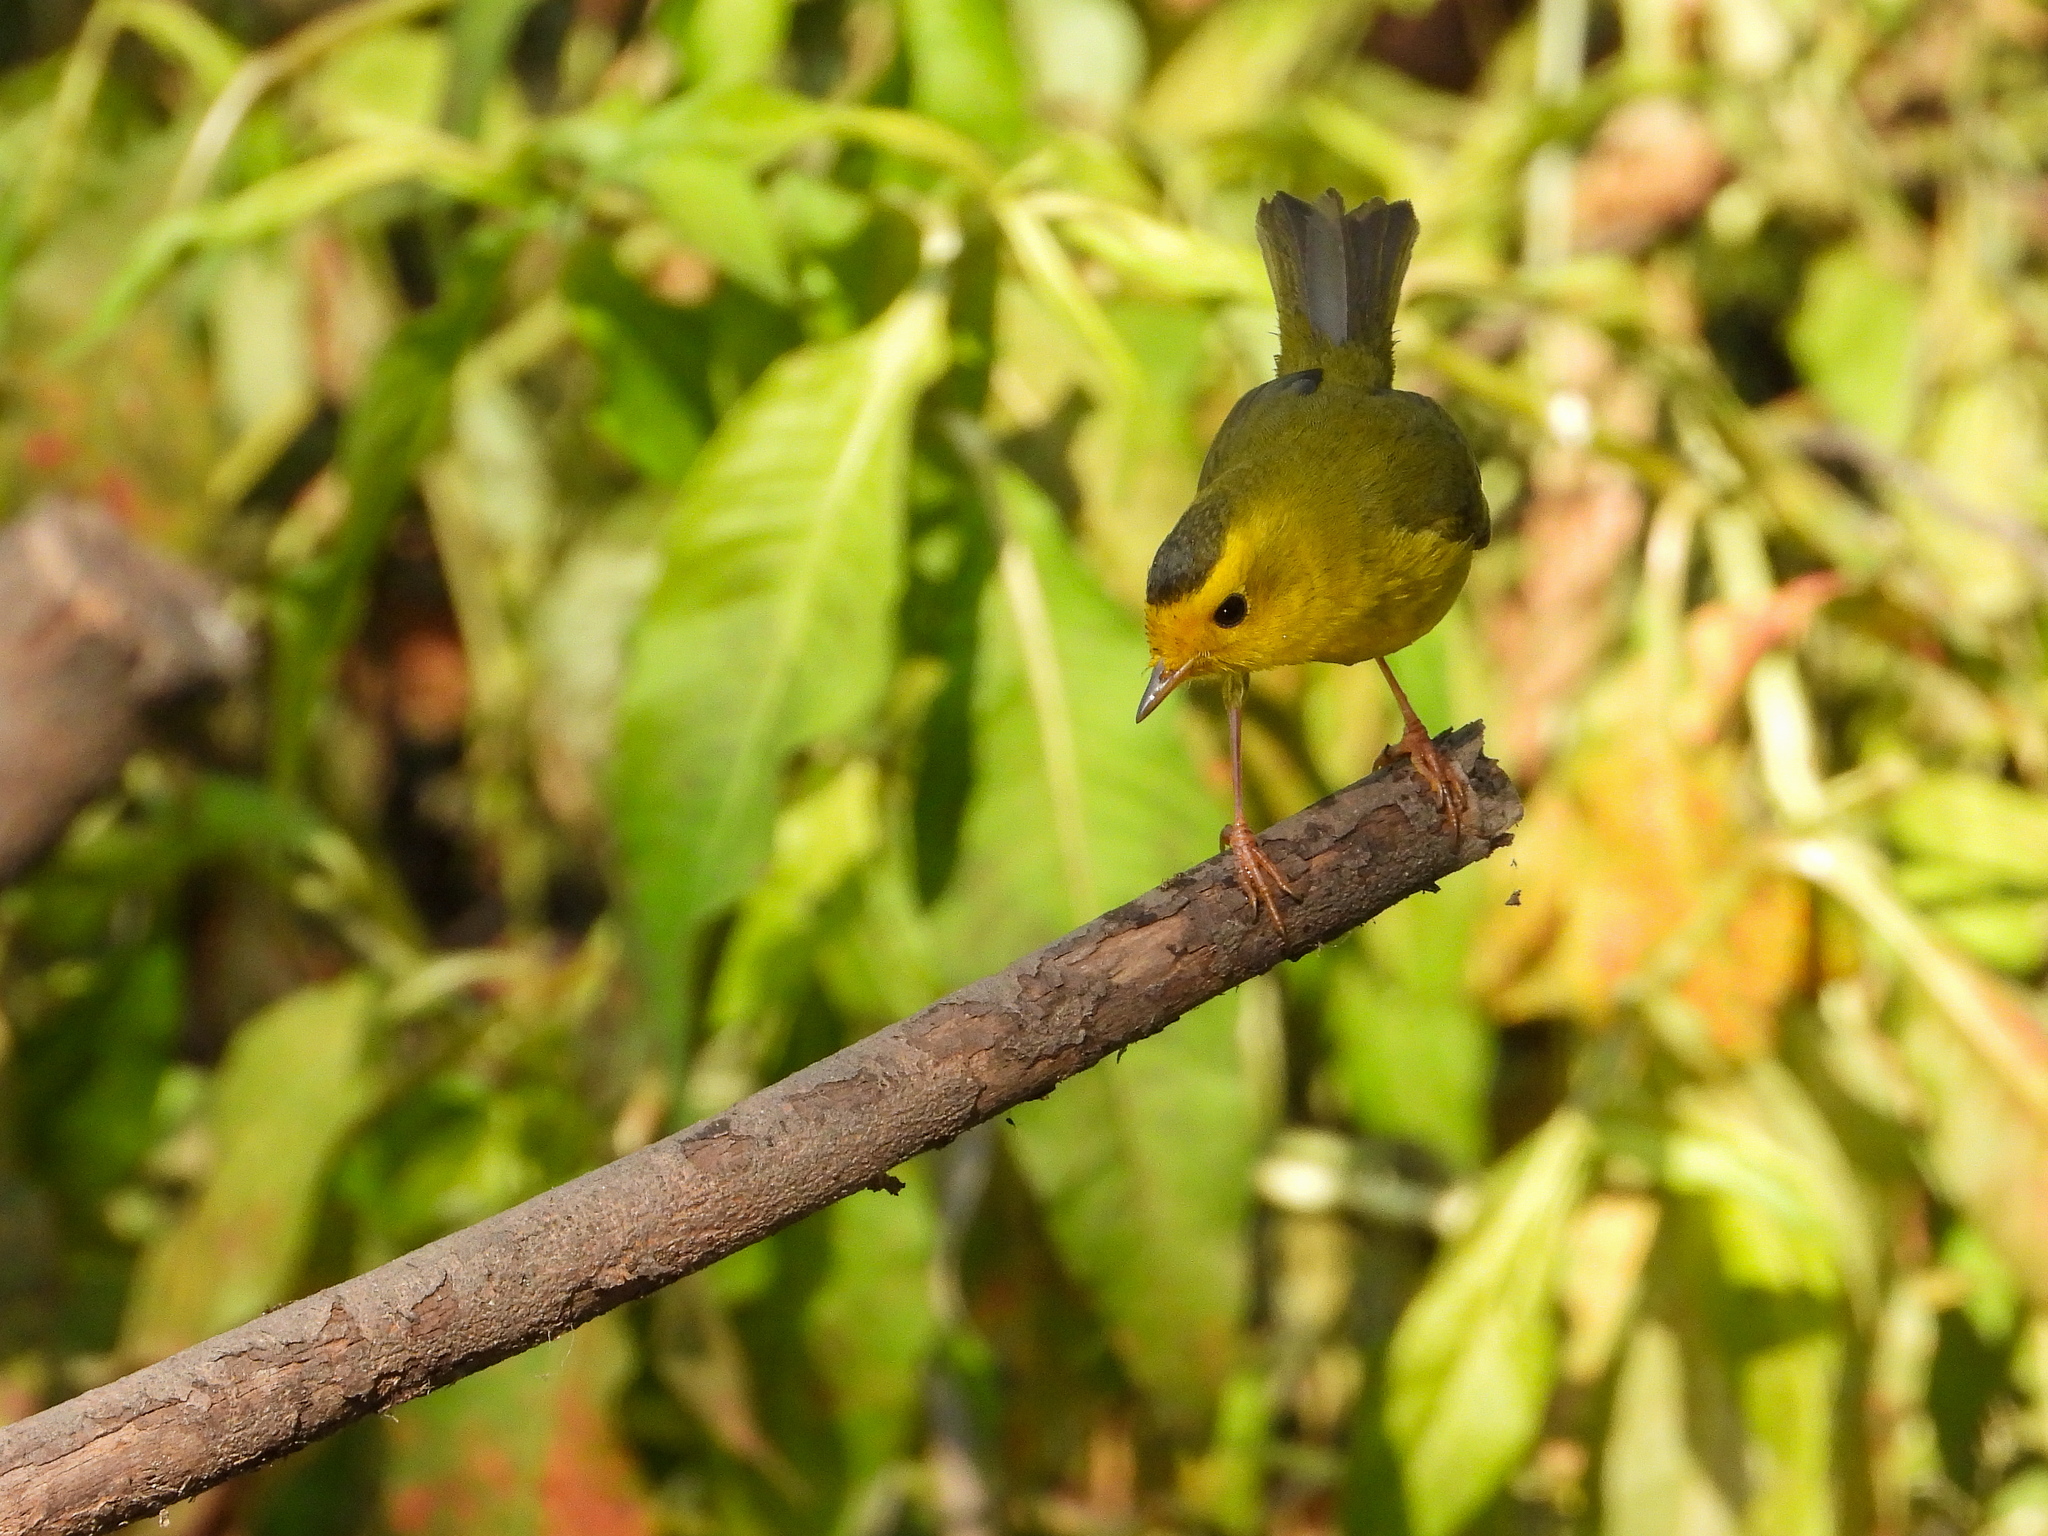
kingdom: Animalia
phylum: Chordata
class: Aves
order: Passeriformes
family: Parulidae
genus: Cardellina
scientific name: Cardellina pusilla
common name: Wilson's warbler
